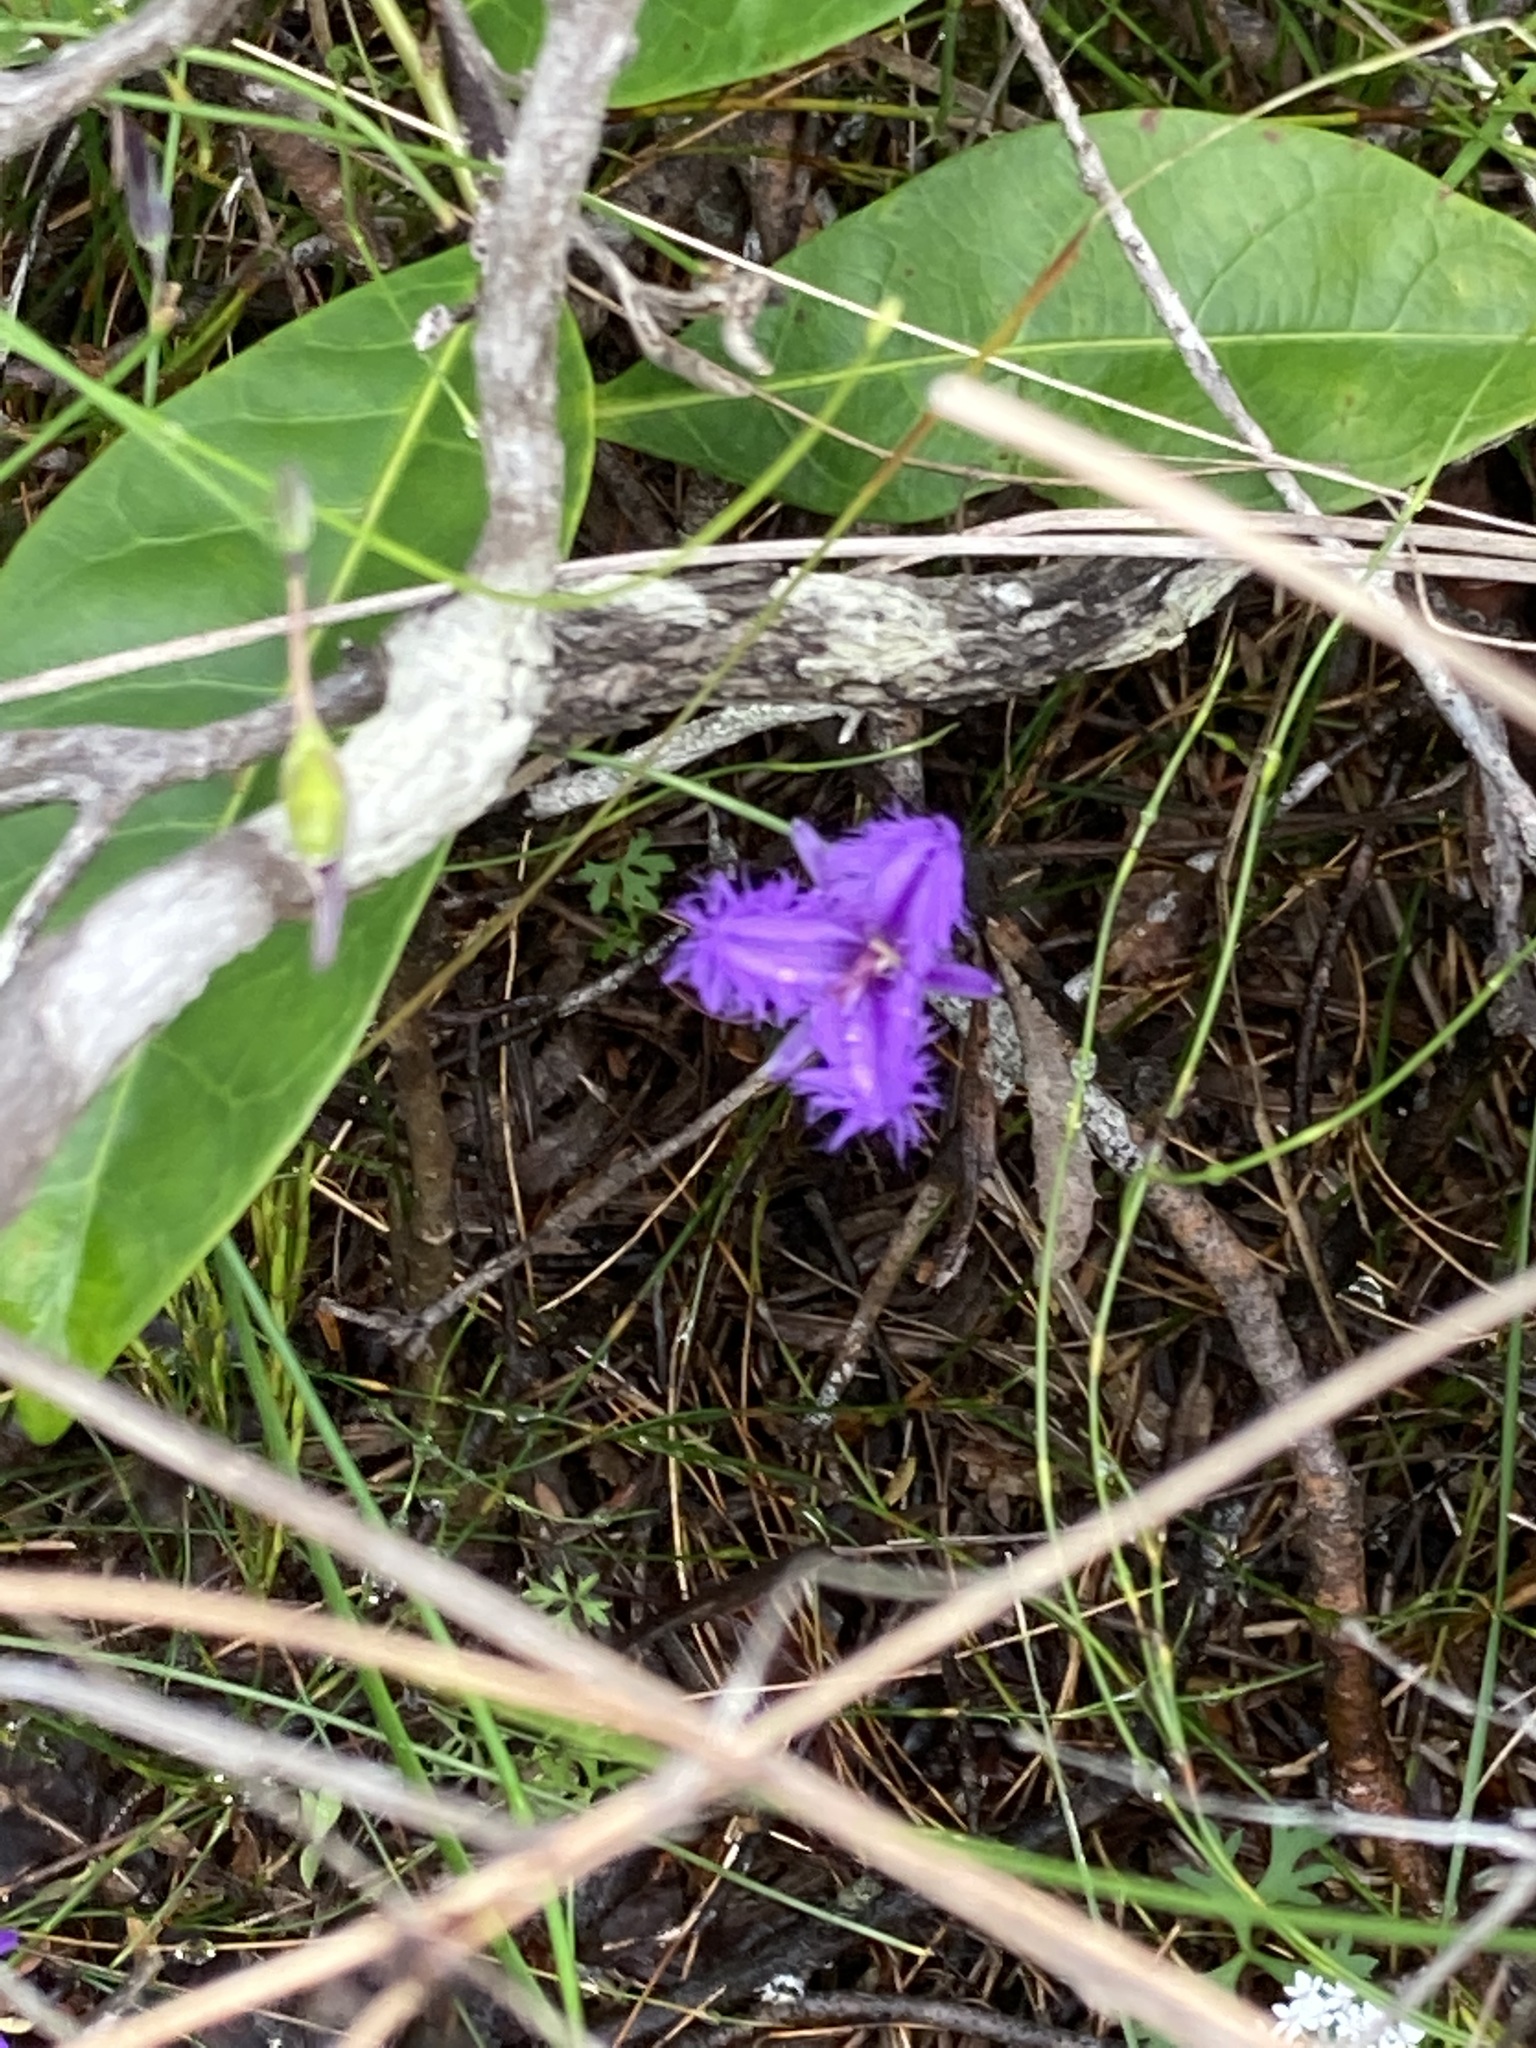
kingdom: Plantae
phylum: Tracheophyta
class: Liliopsida
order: Asparagales
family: Asparagaceae
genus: Thysanotus
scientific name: Thysanotus tuberosus
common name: Common fringed-lily
